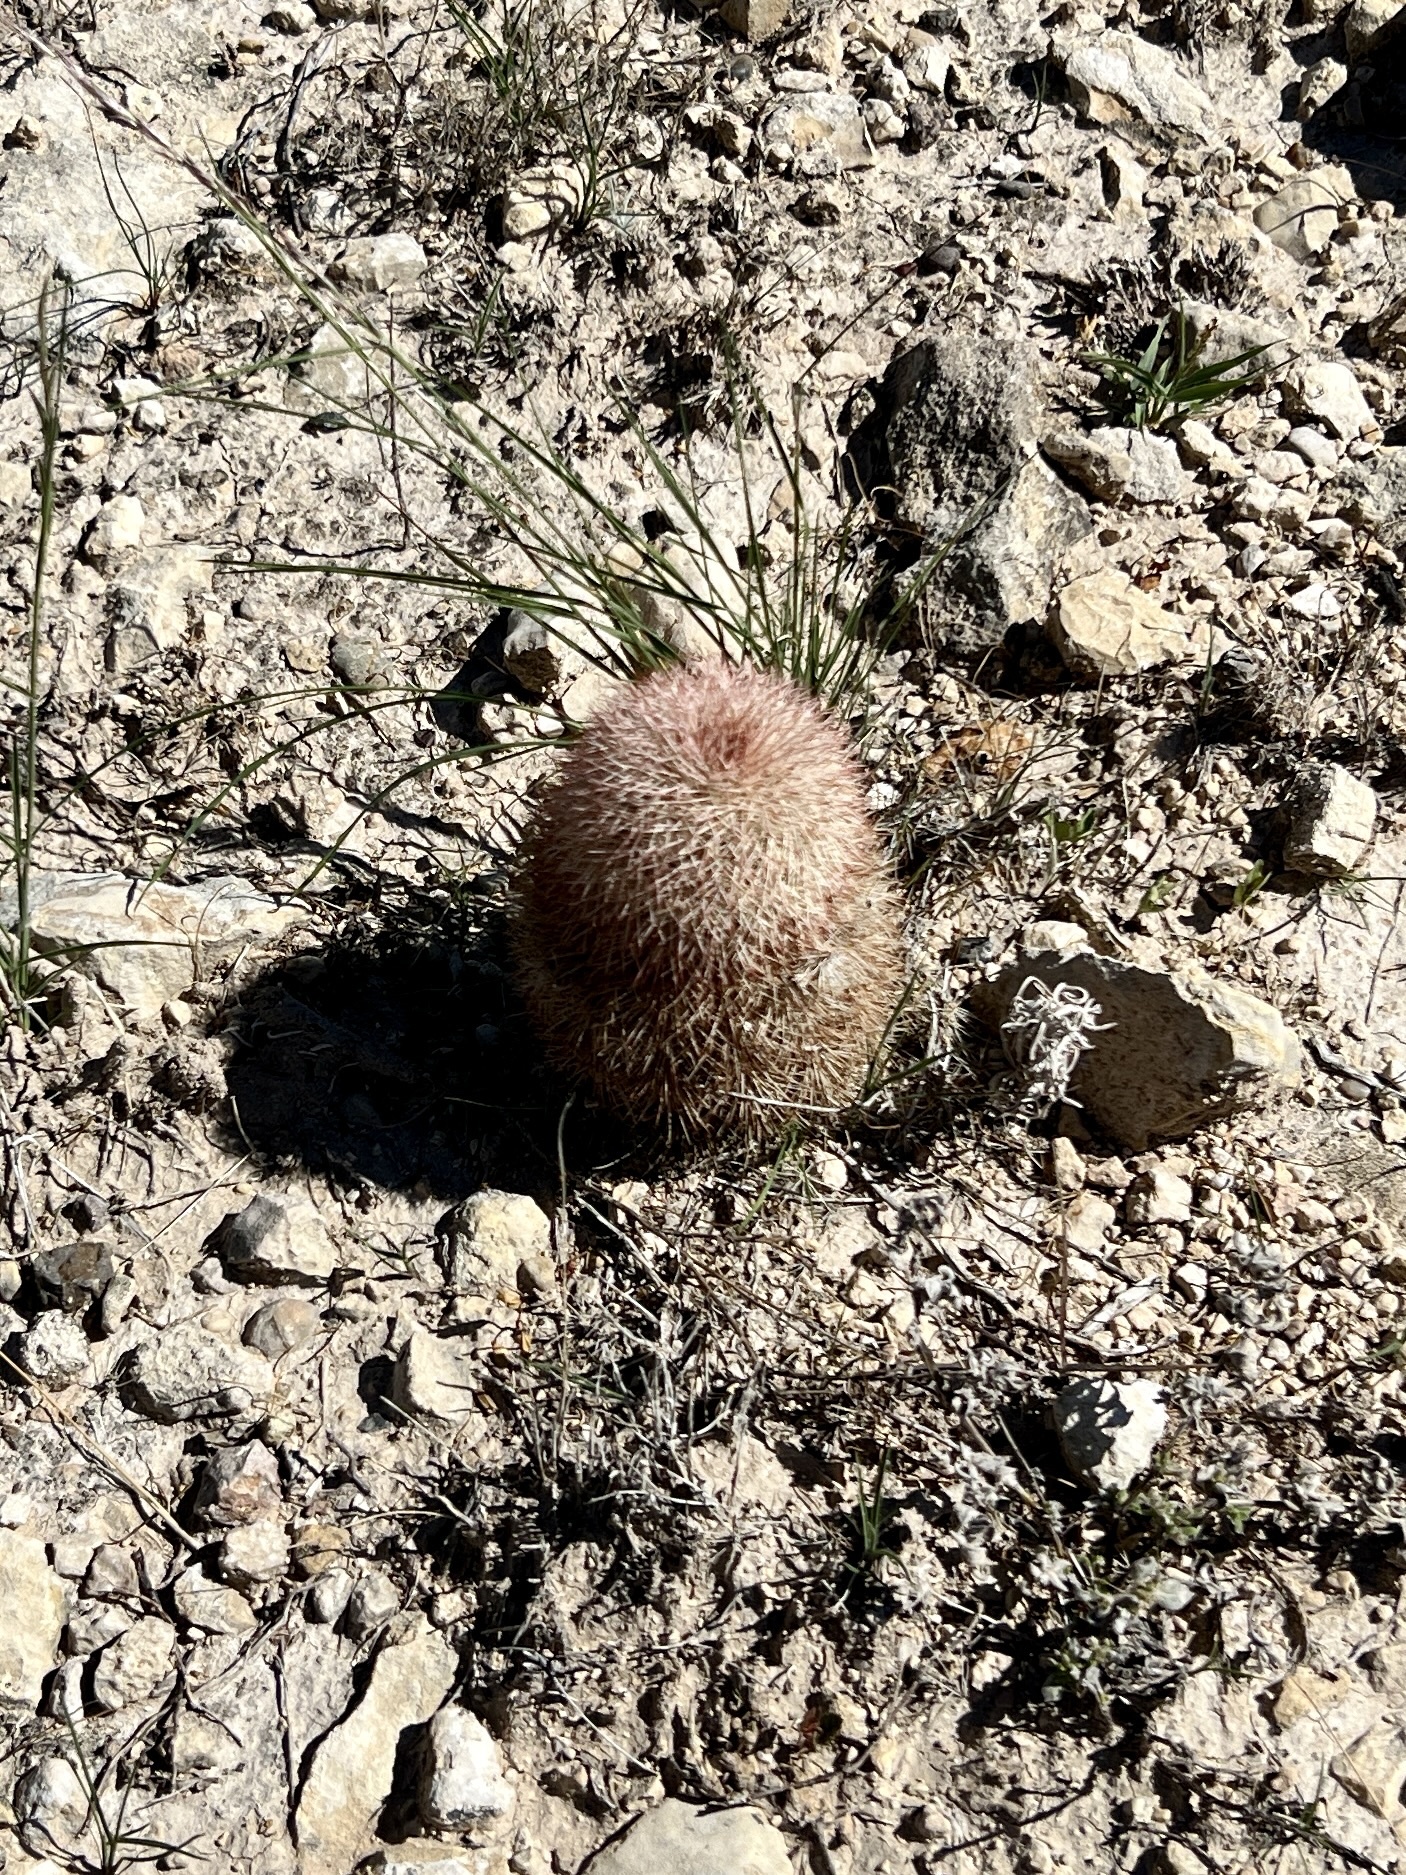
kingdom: Plantae
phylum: Tracheophyta
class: Magnoliopsida
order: Caryophyllales
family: Cactaceae
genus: Echinocereus
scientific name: Echinocereus dasyacanthus
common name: Spiny hedgehog cactus
